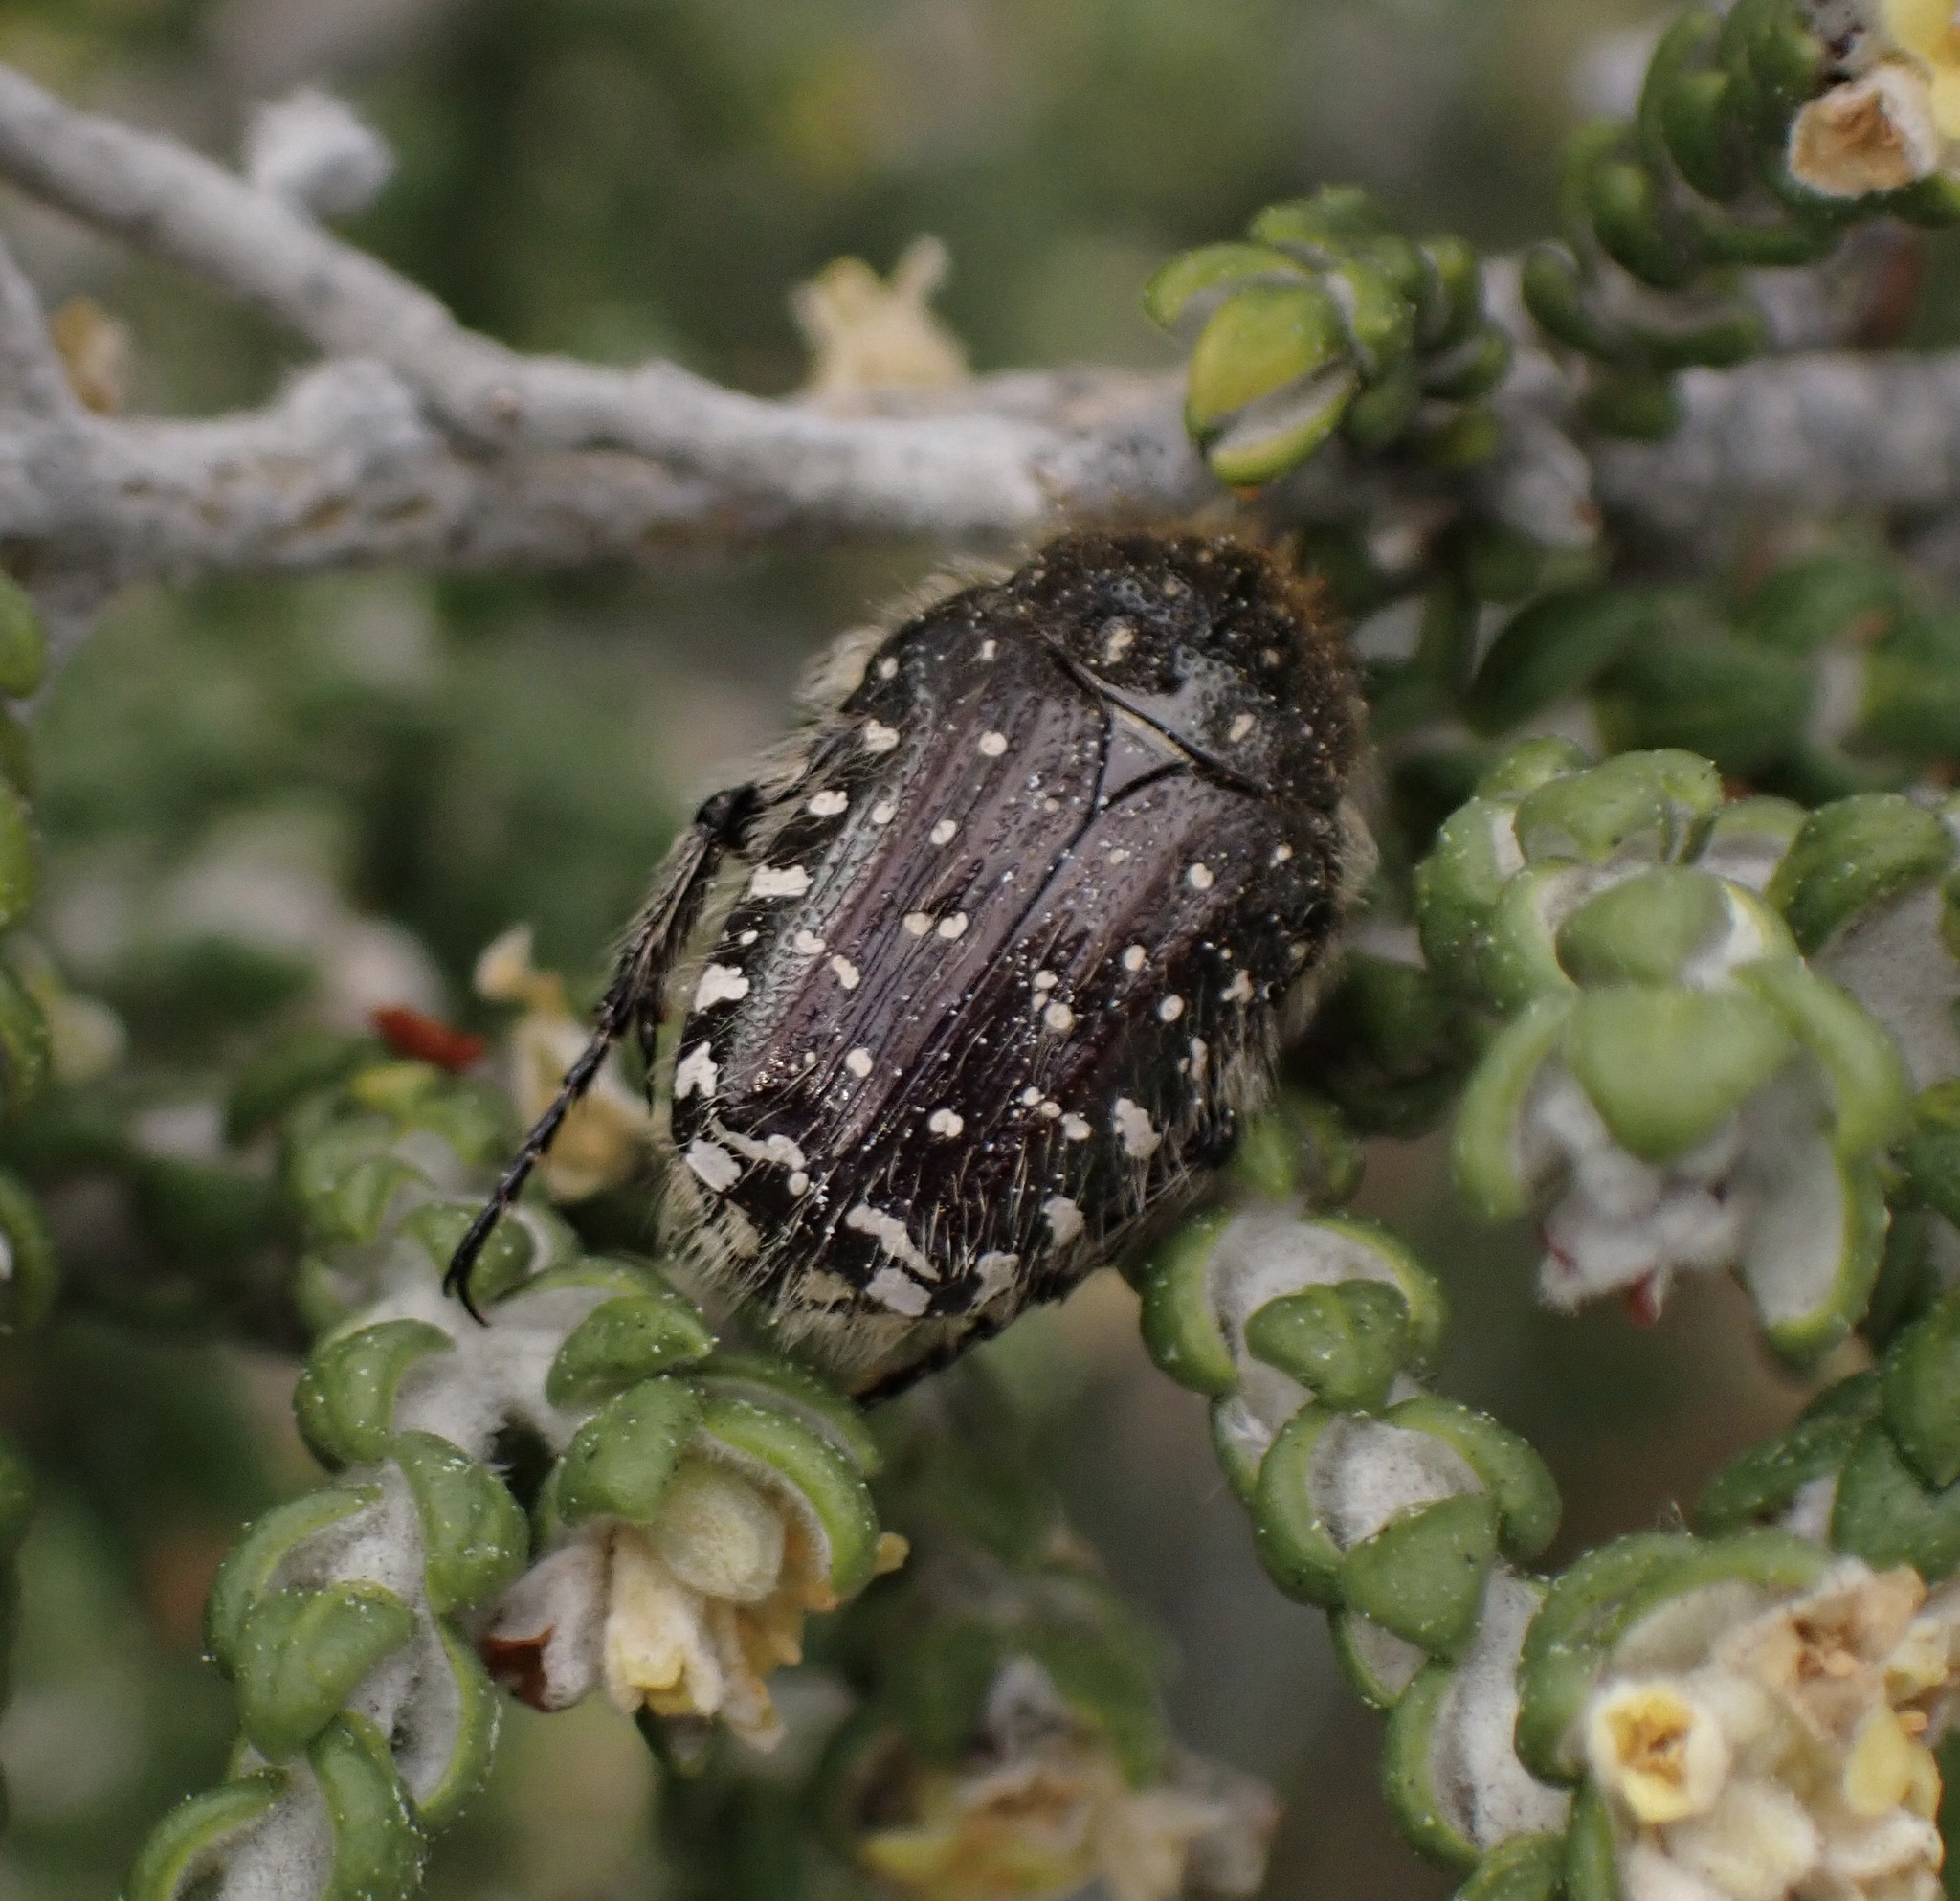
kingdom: Animalia
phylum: Arthropoda
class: Insecta
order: Coleoptera
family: Scarabaeidae
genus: Oxythyrea
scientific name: Oxythyrea funesta
